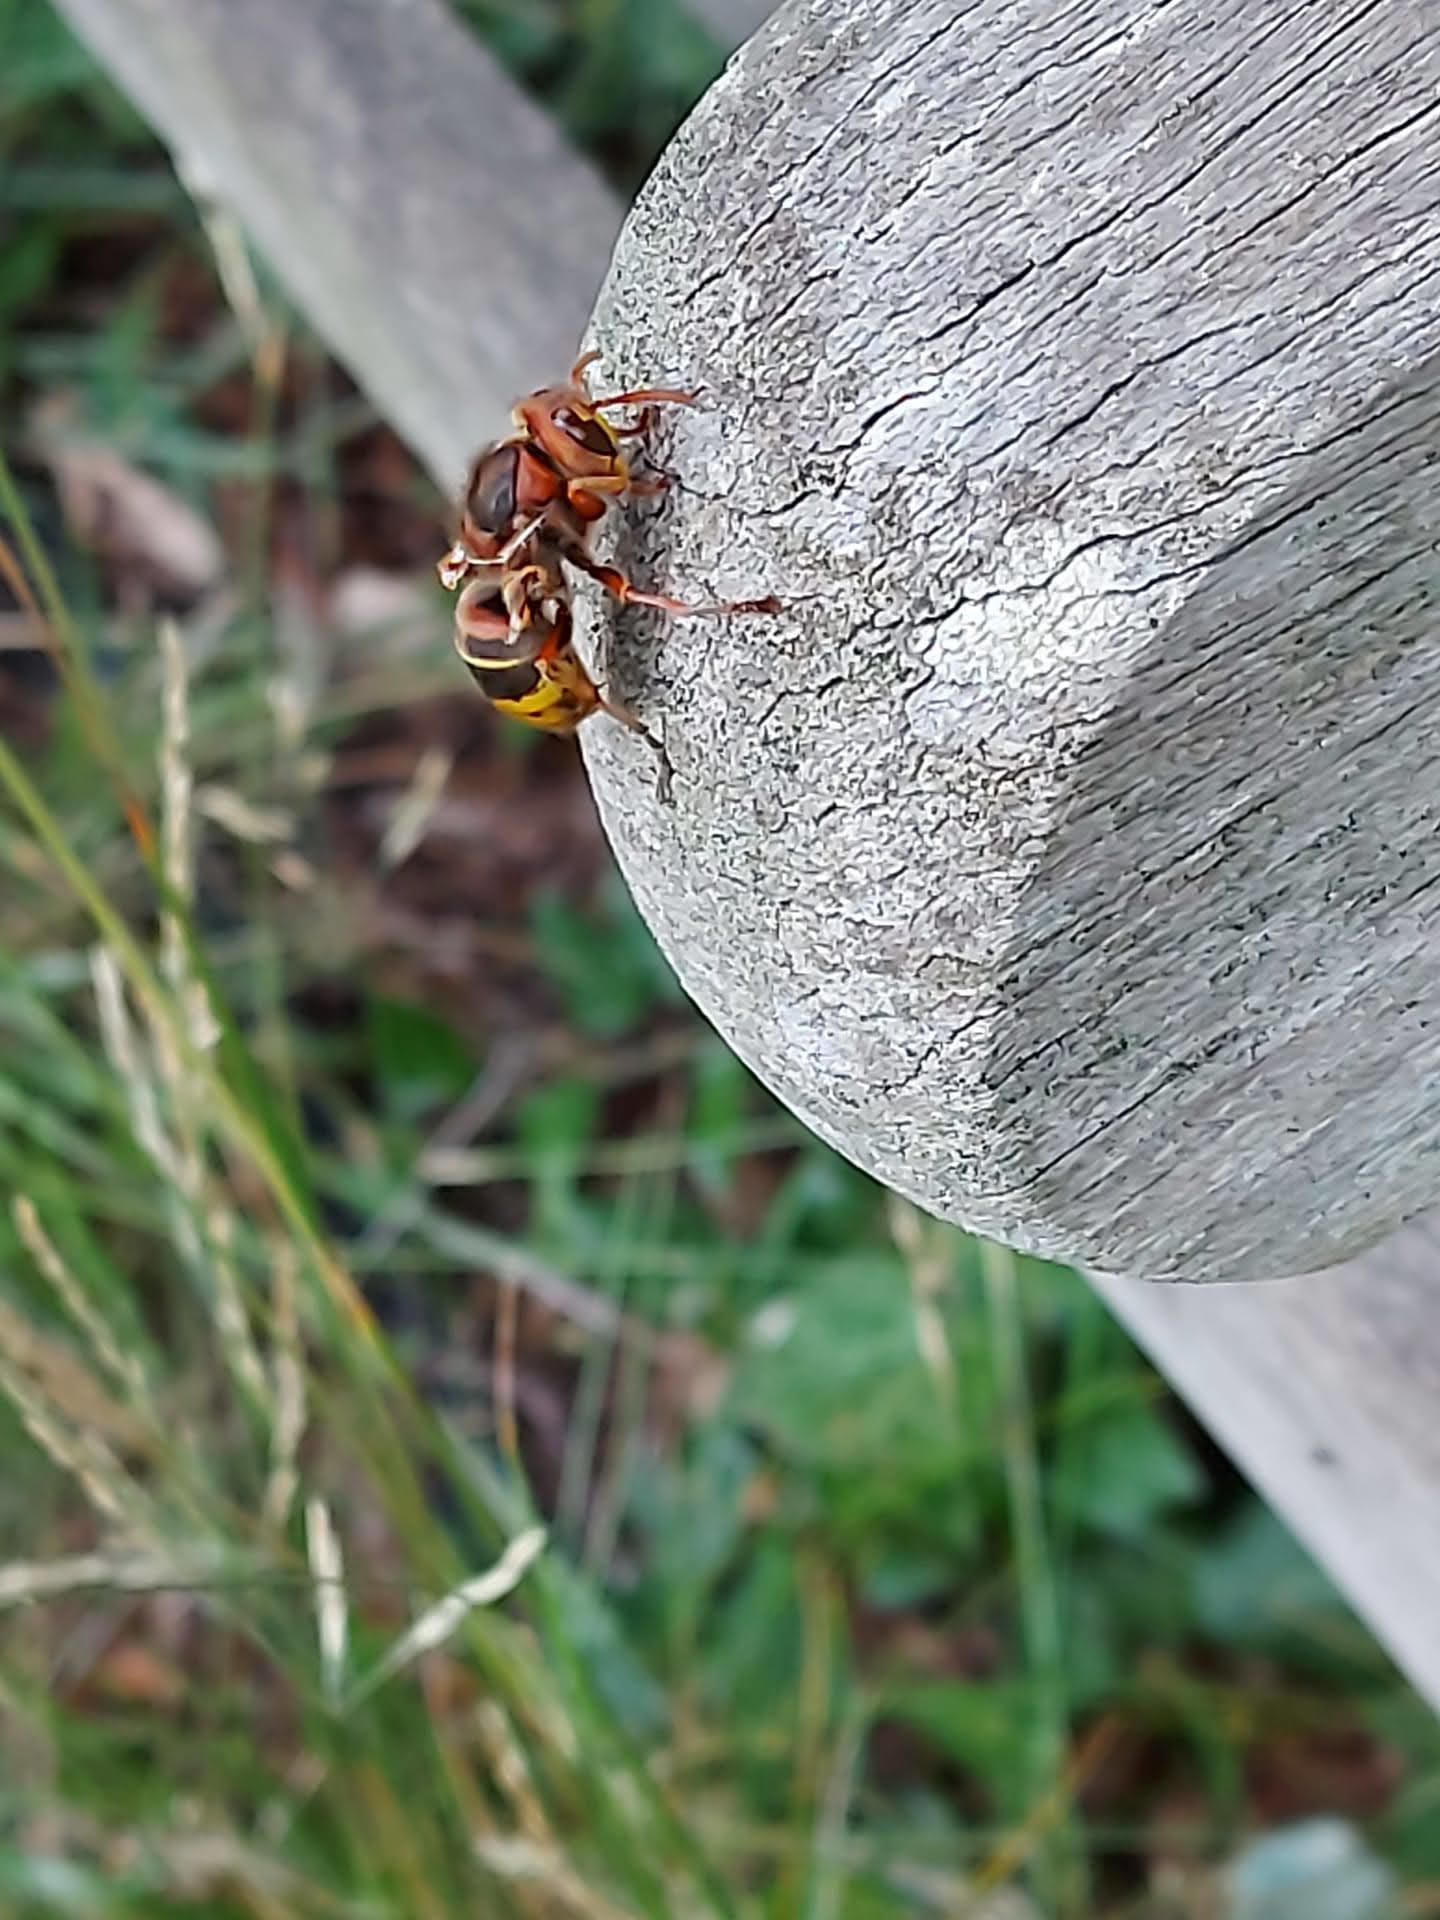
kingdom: Animalia
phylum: Arthropoda
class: Insecta
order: Hymenoptera
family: Vespidae
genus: Vespa
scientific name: Vespa crabro
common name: Hornet
